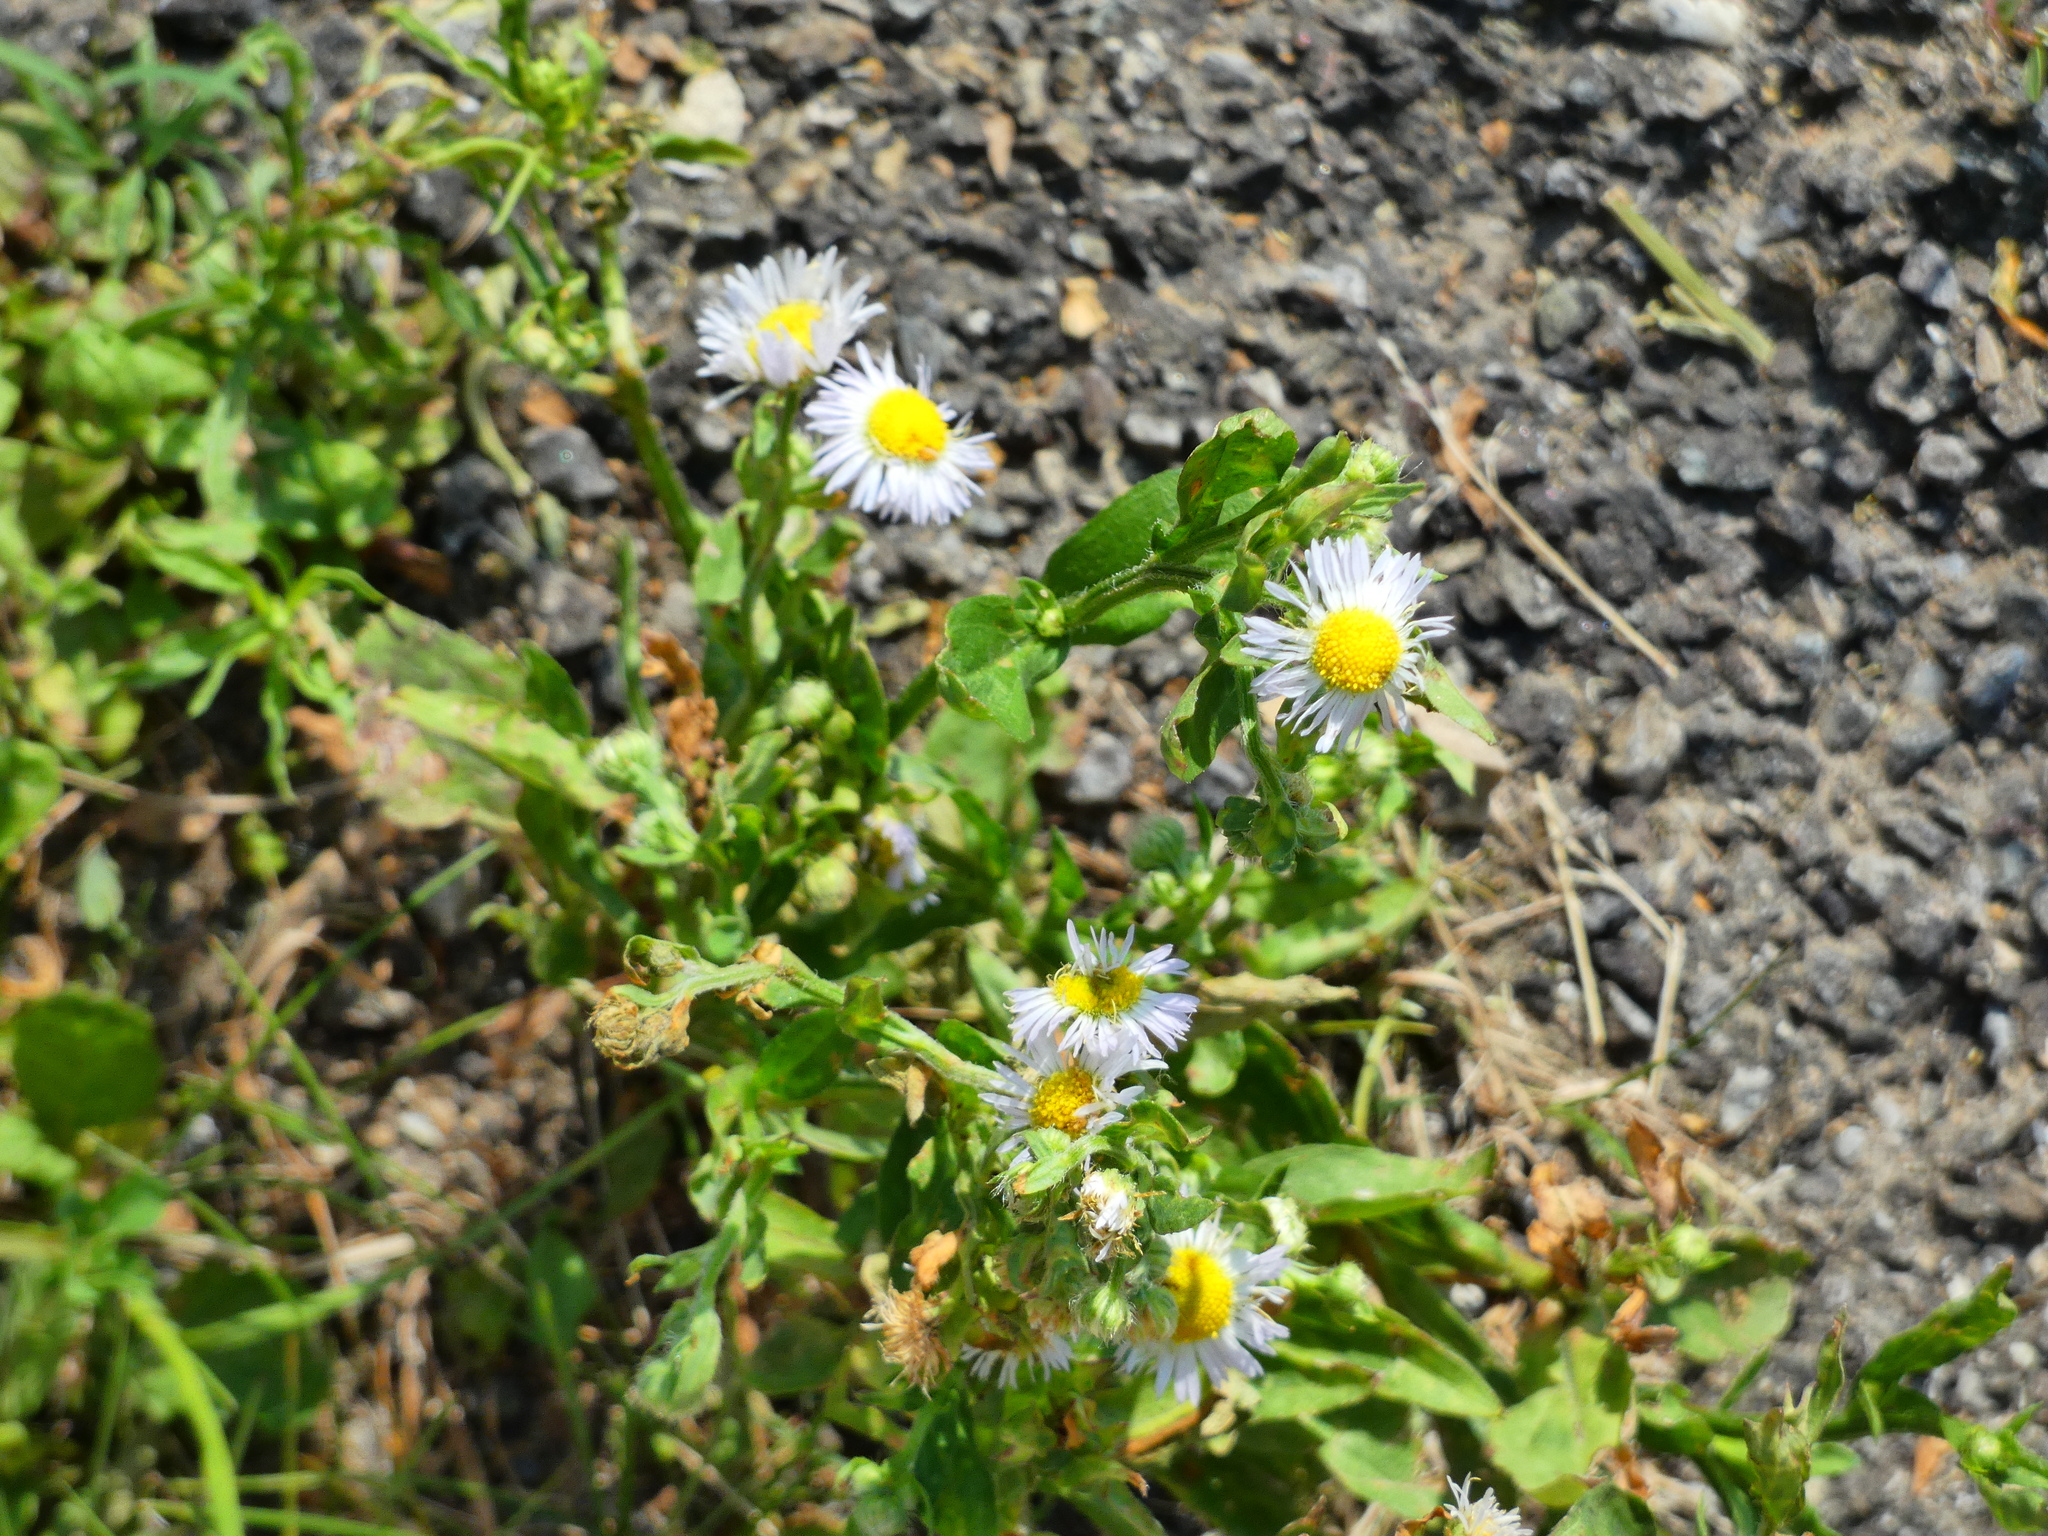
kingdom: Plantae
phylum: Tracheophyta
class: Magnoliopsida
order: Asterales
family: Asteraceae
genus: Erigeron
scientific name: Erigeron annuus
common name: Tall fleabane
